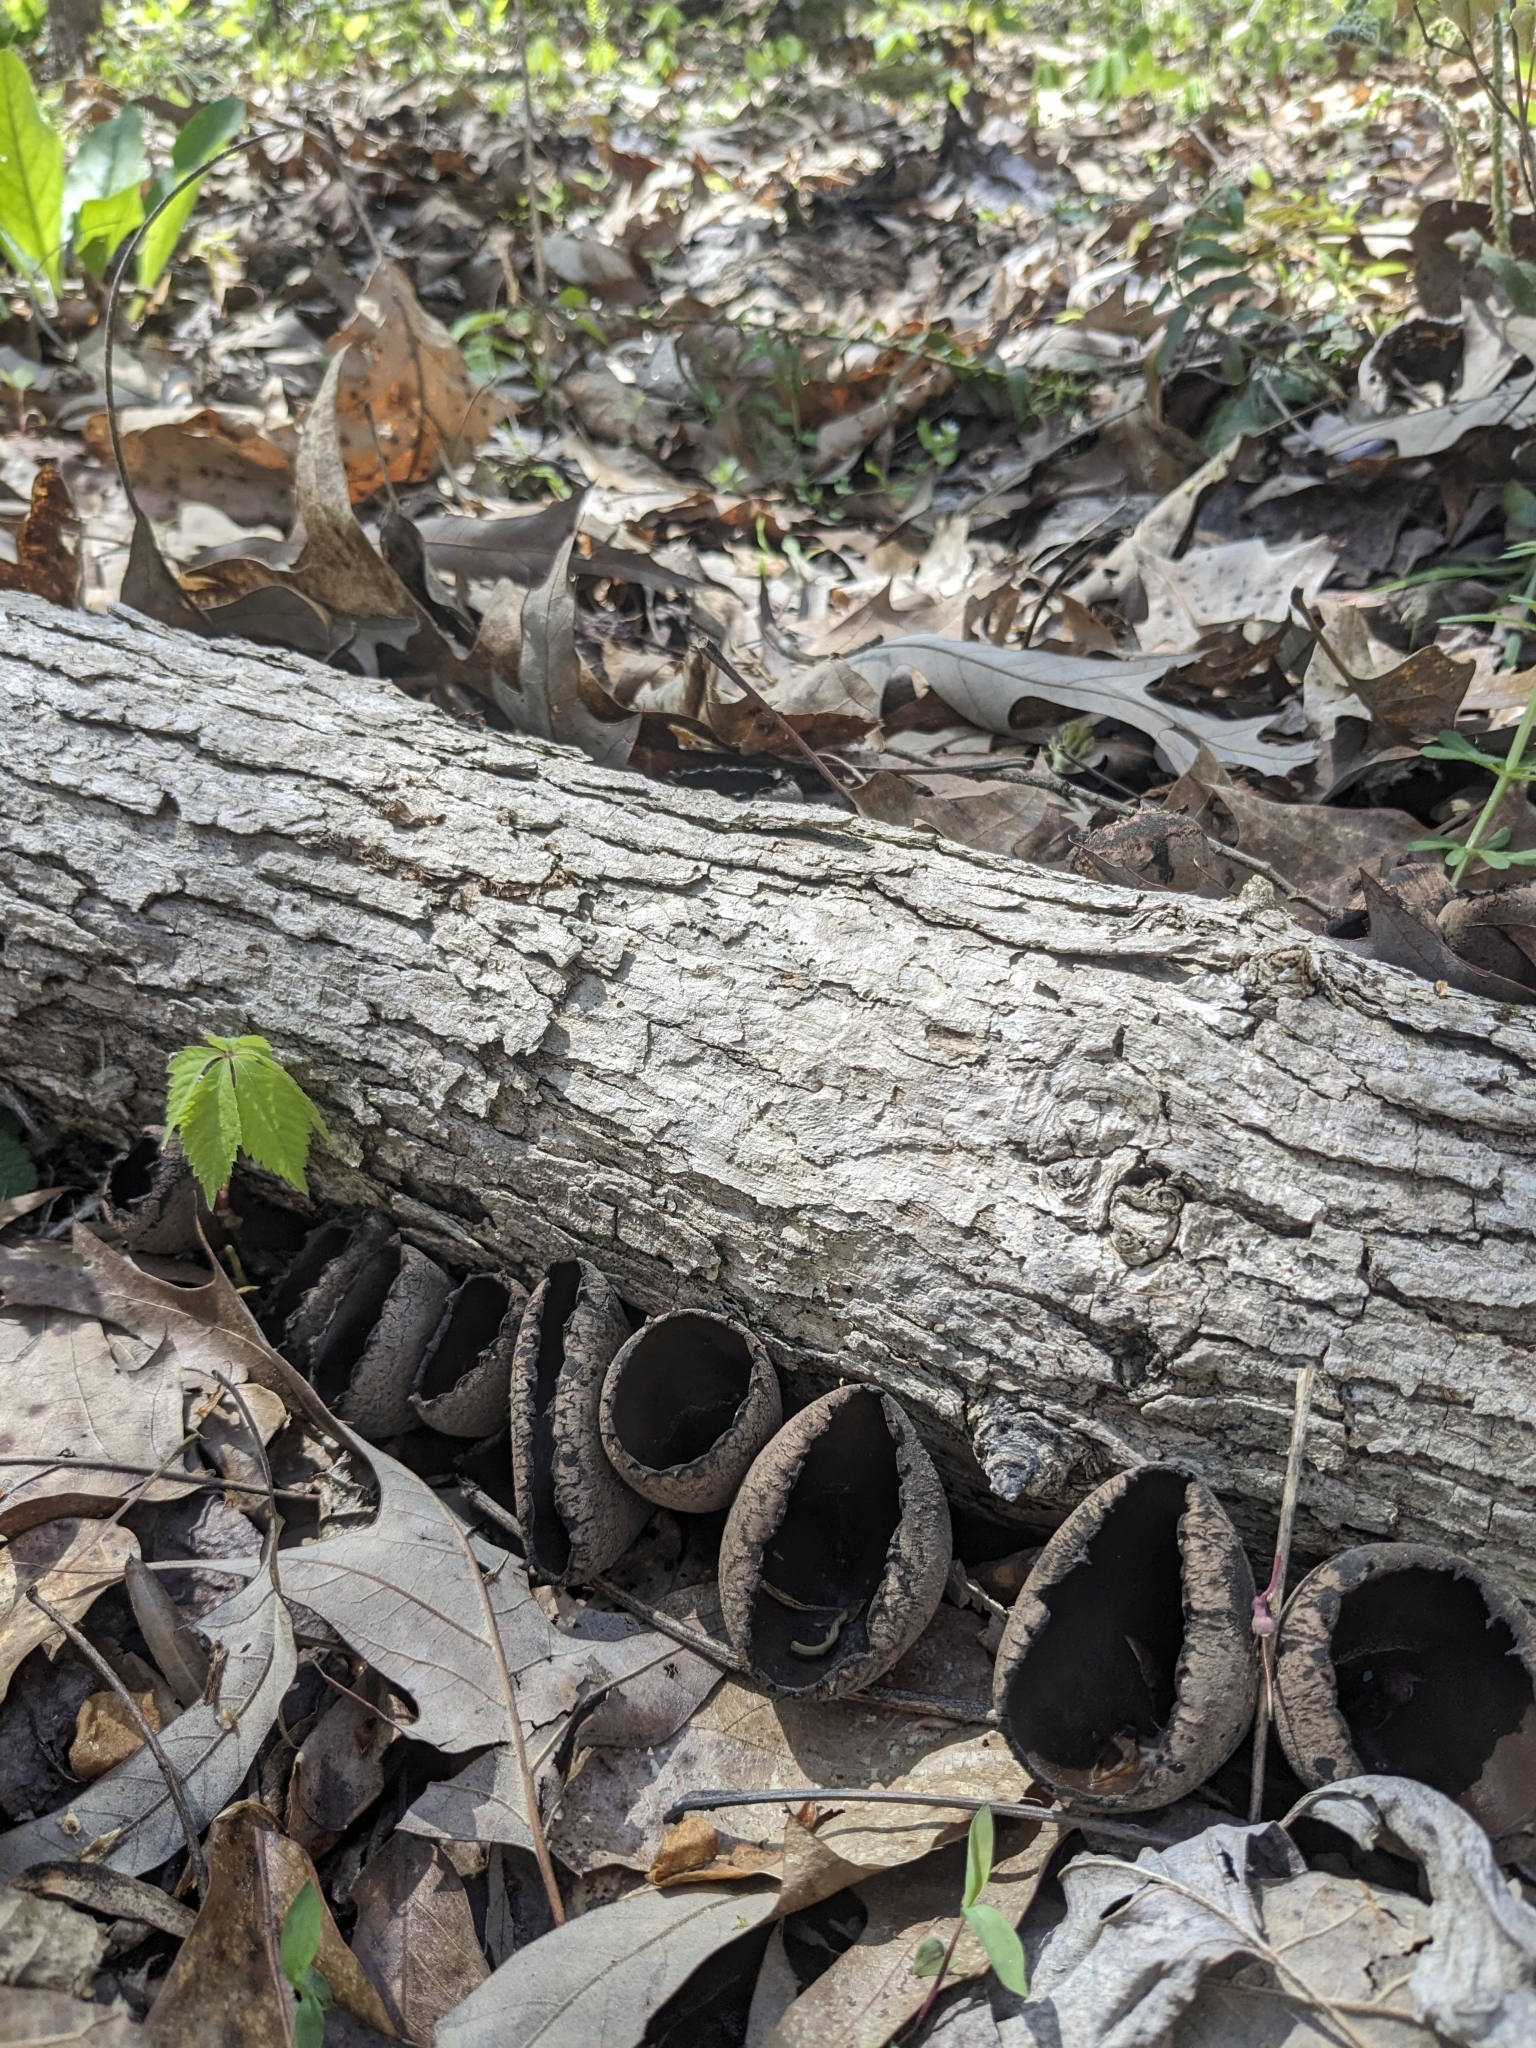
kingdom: Fungi
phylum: Ascomycota
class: Pezizomycetes
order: Pezizales
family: Sarcosomataceae
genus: Urnula
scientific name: Urnula craterium
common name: Devil's urn
